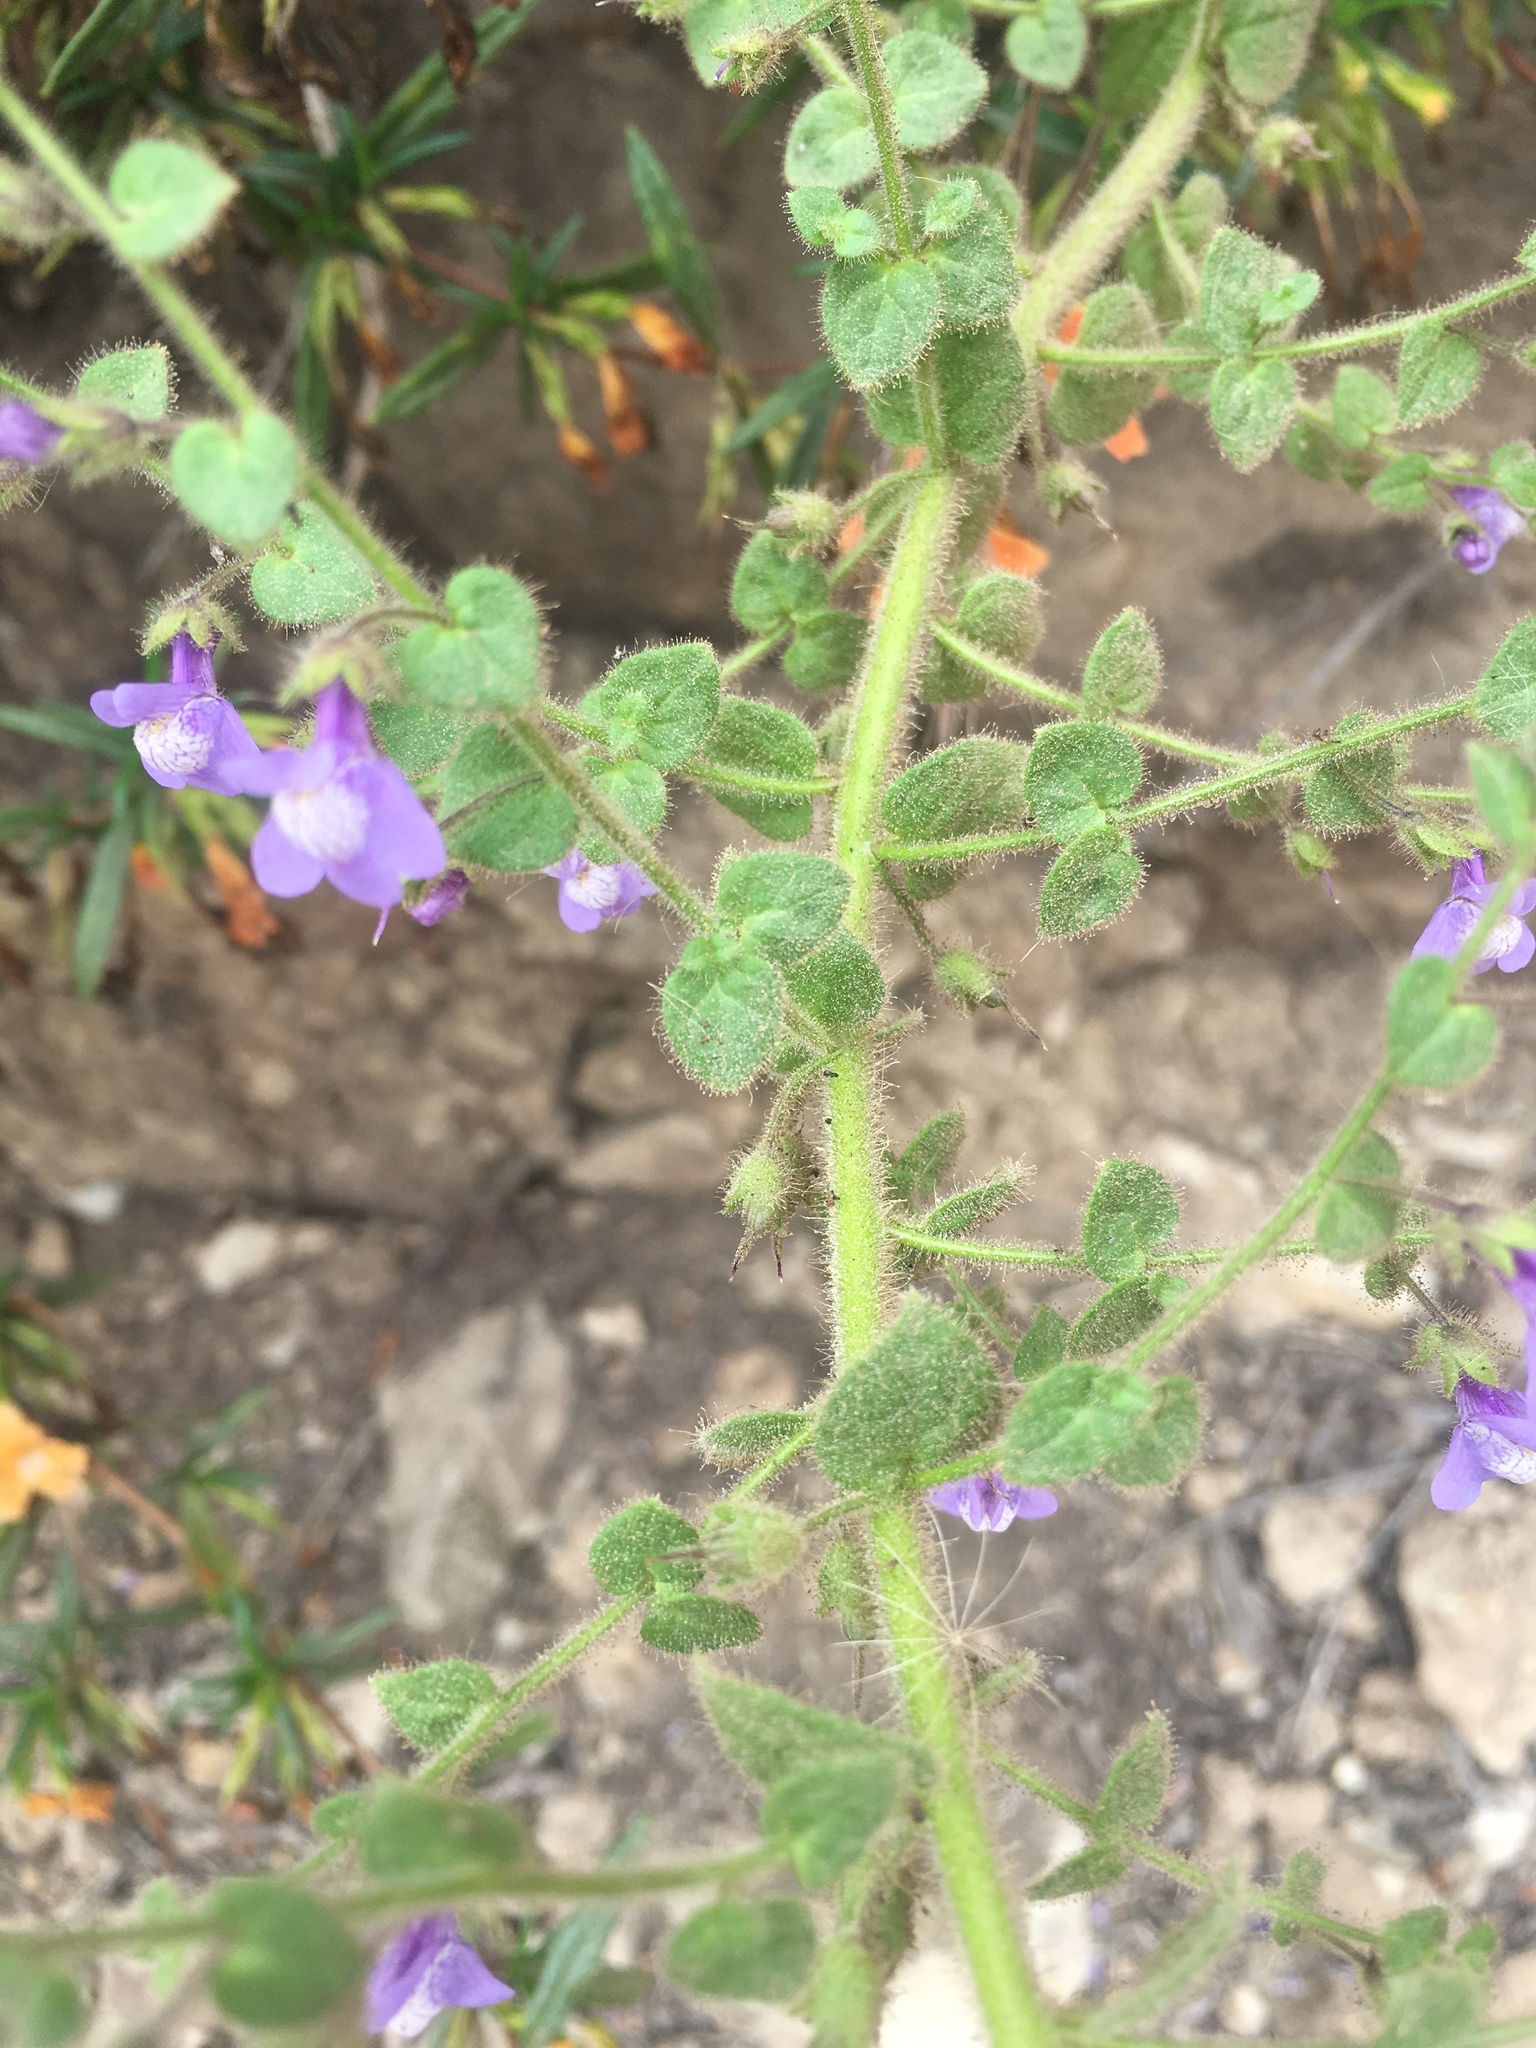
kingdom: Plantae
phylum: Tracheophyta
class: Magnoliopsida
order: Lamiales
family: Plantaginaceae
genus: Sairocarpus
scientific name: Sairocarpus nuttallianus
